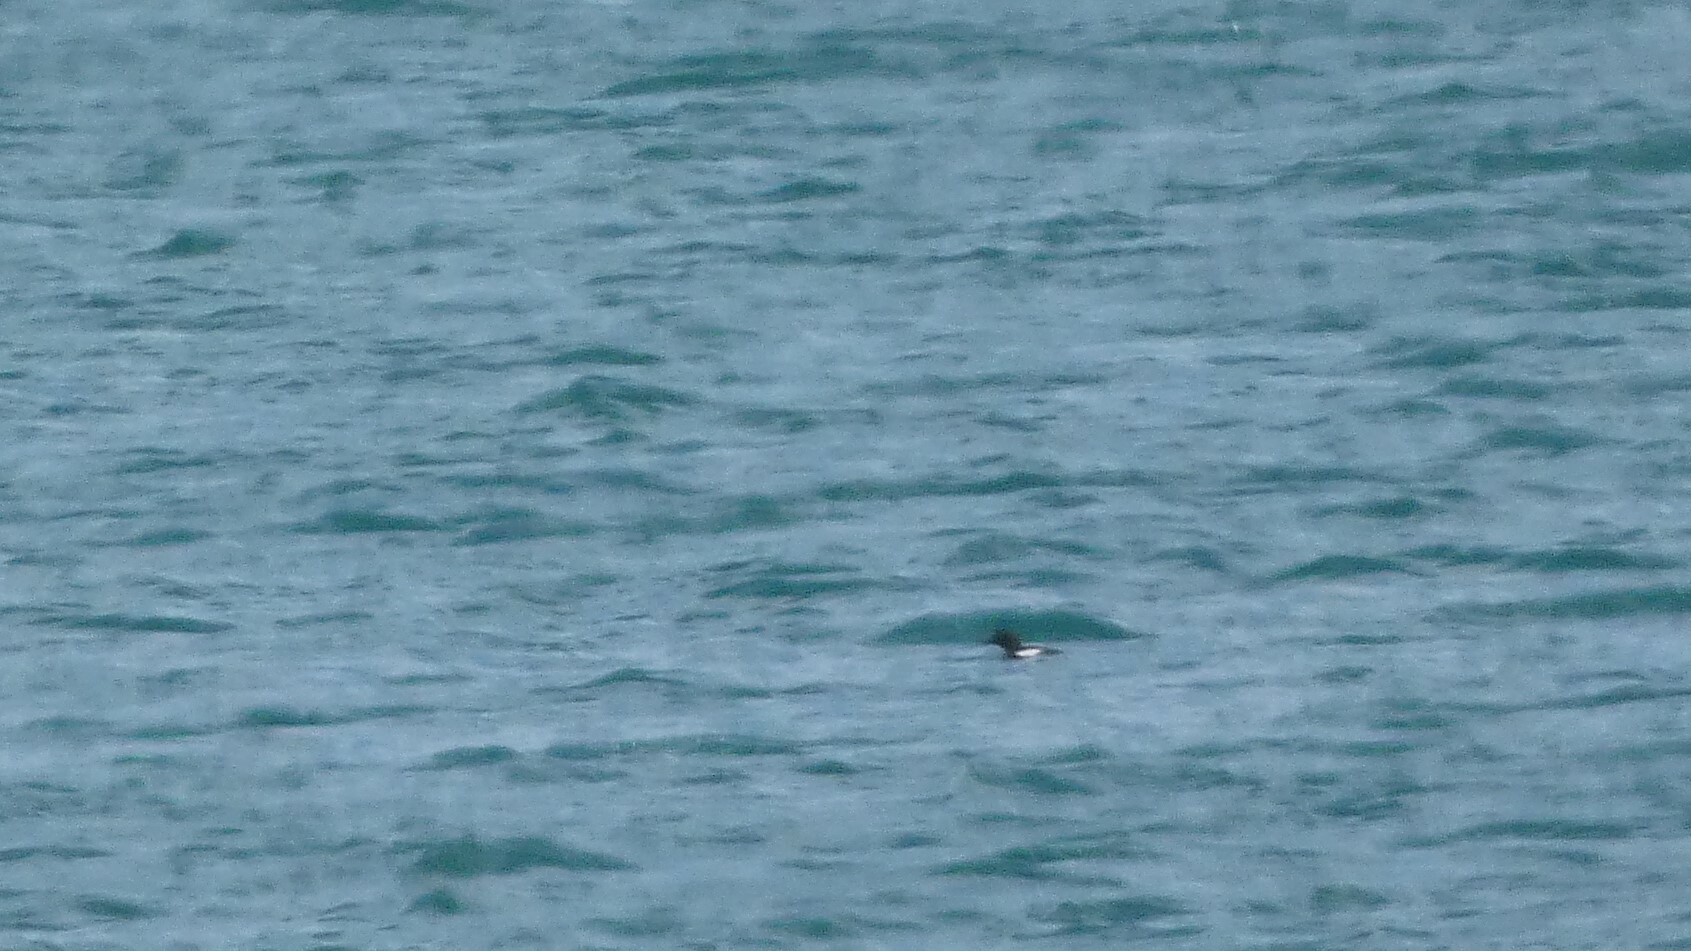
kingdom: Animalia
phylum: Chordata
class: Aves
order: Charadriiformes
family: Alcidae
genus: Cepphus
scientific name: Cepphus grylle
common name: Black guillemot
